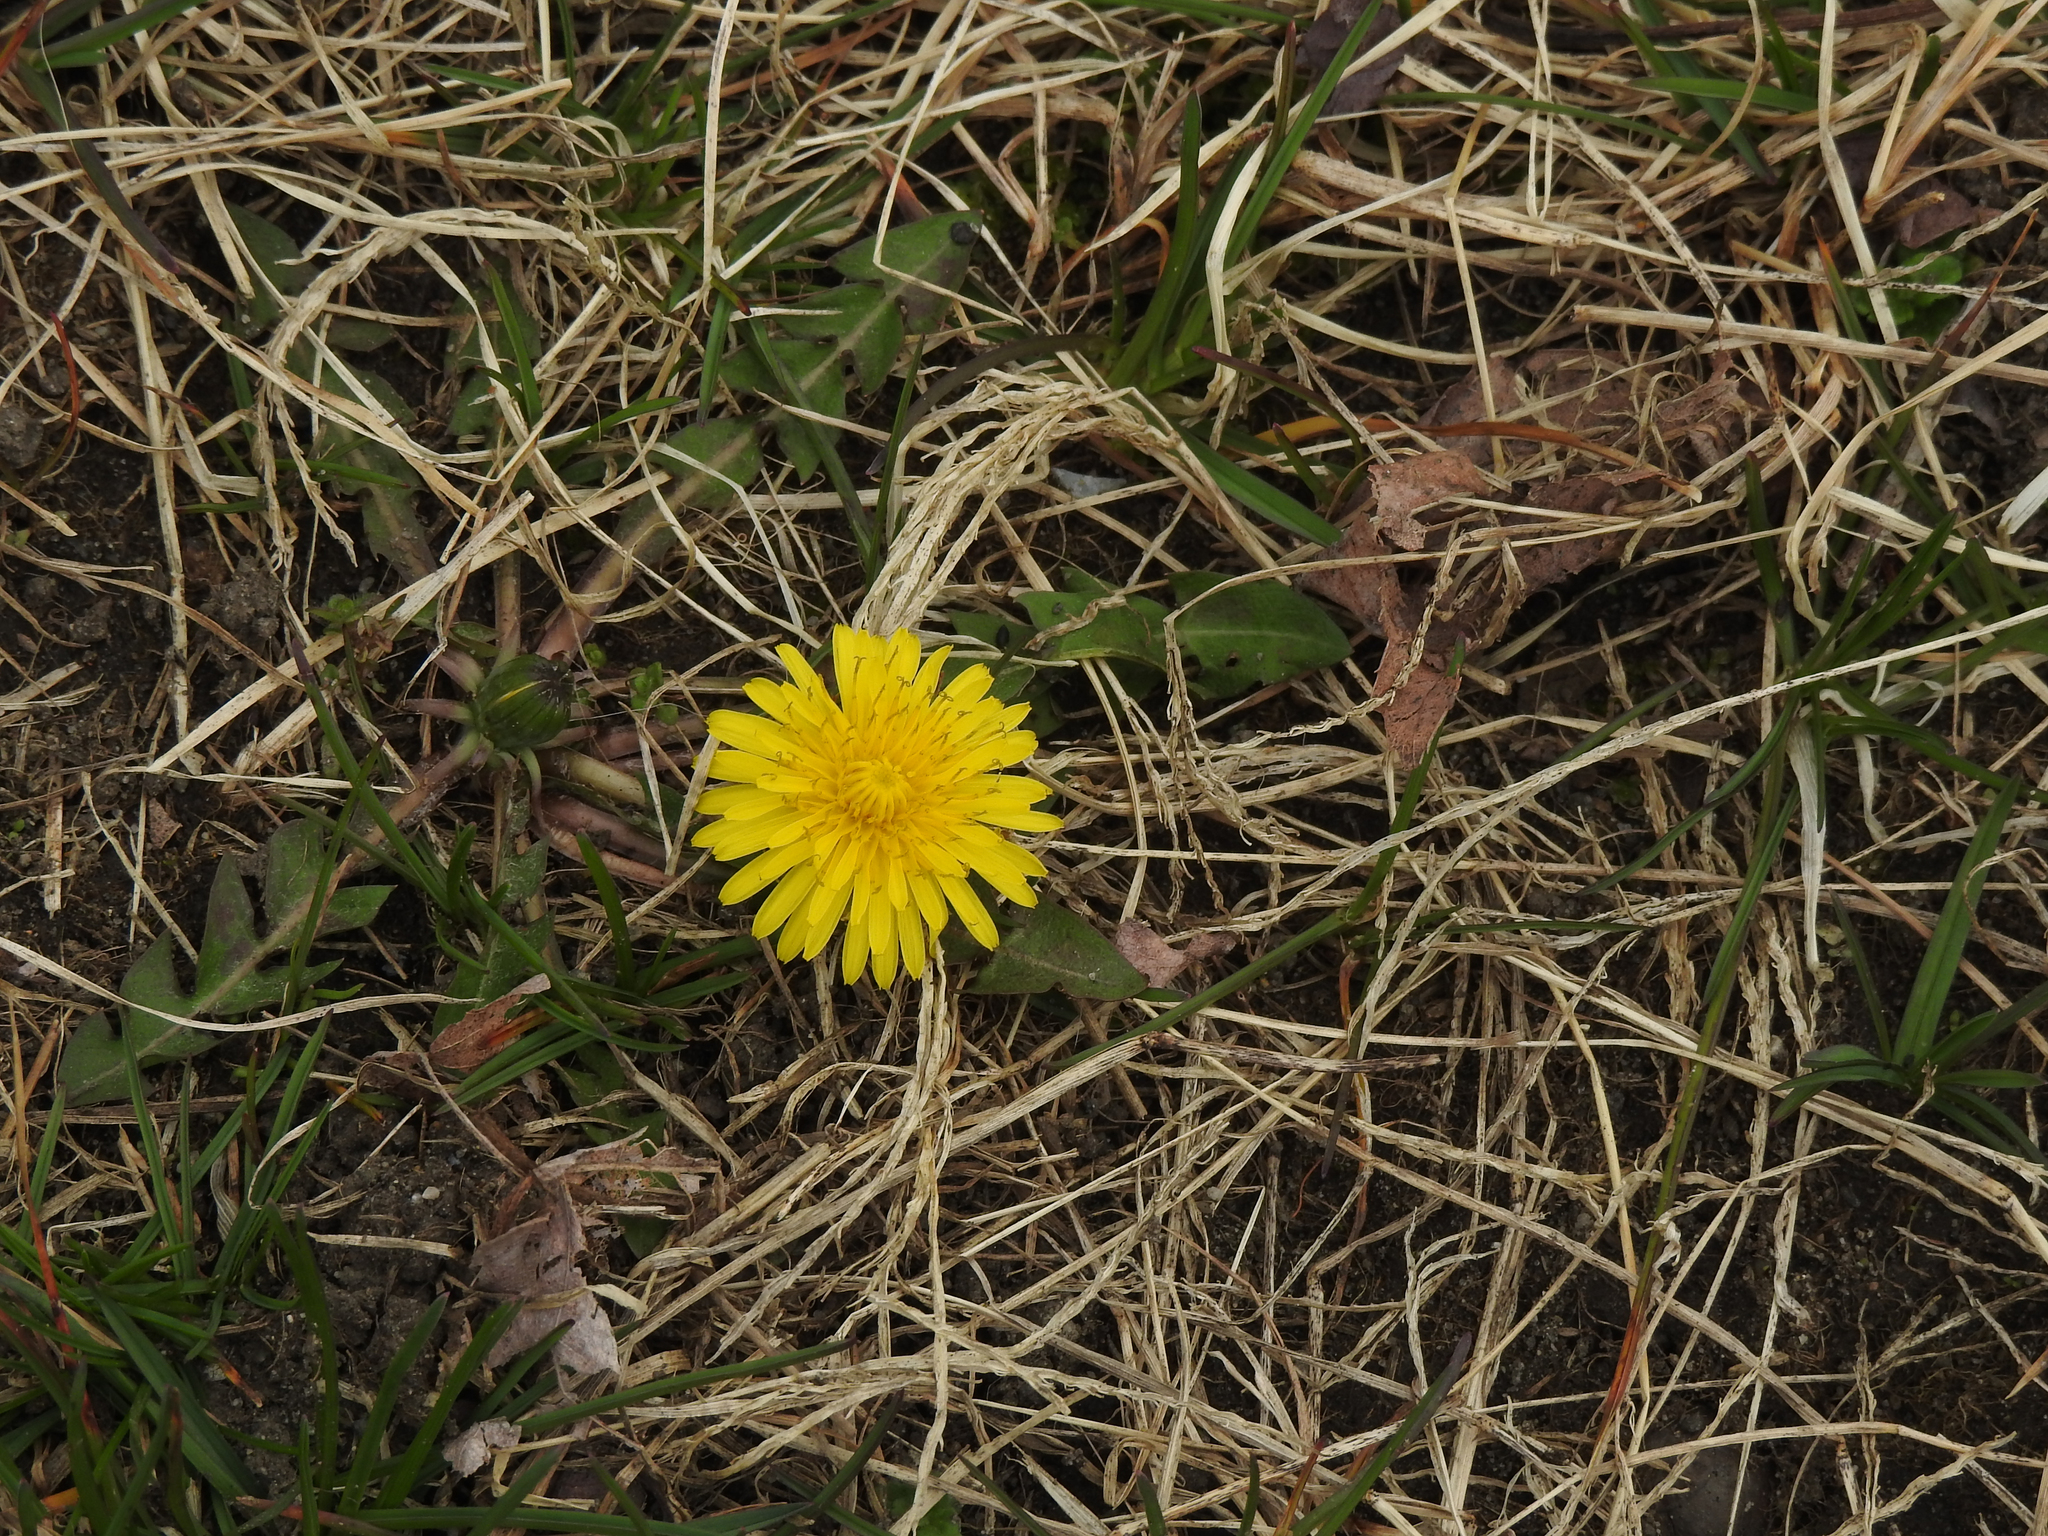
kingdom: Plantae
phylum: Tracheophyta
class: Magnoliopsida
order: Asterales
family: Asteraceae
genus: Taraxacum
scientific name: Taraxacum officinale
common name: Common dandelion
